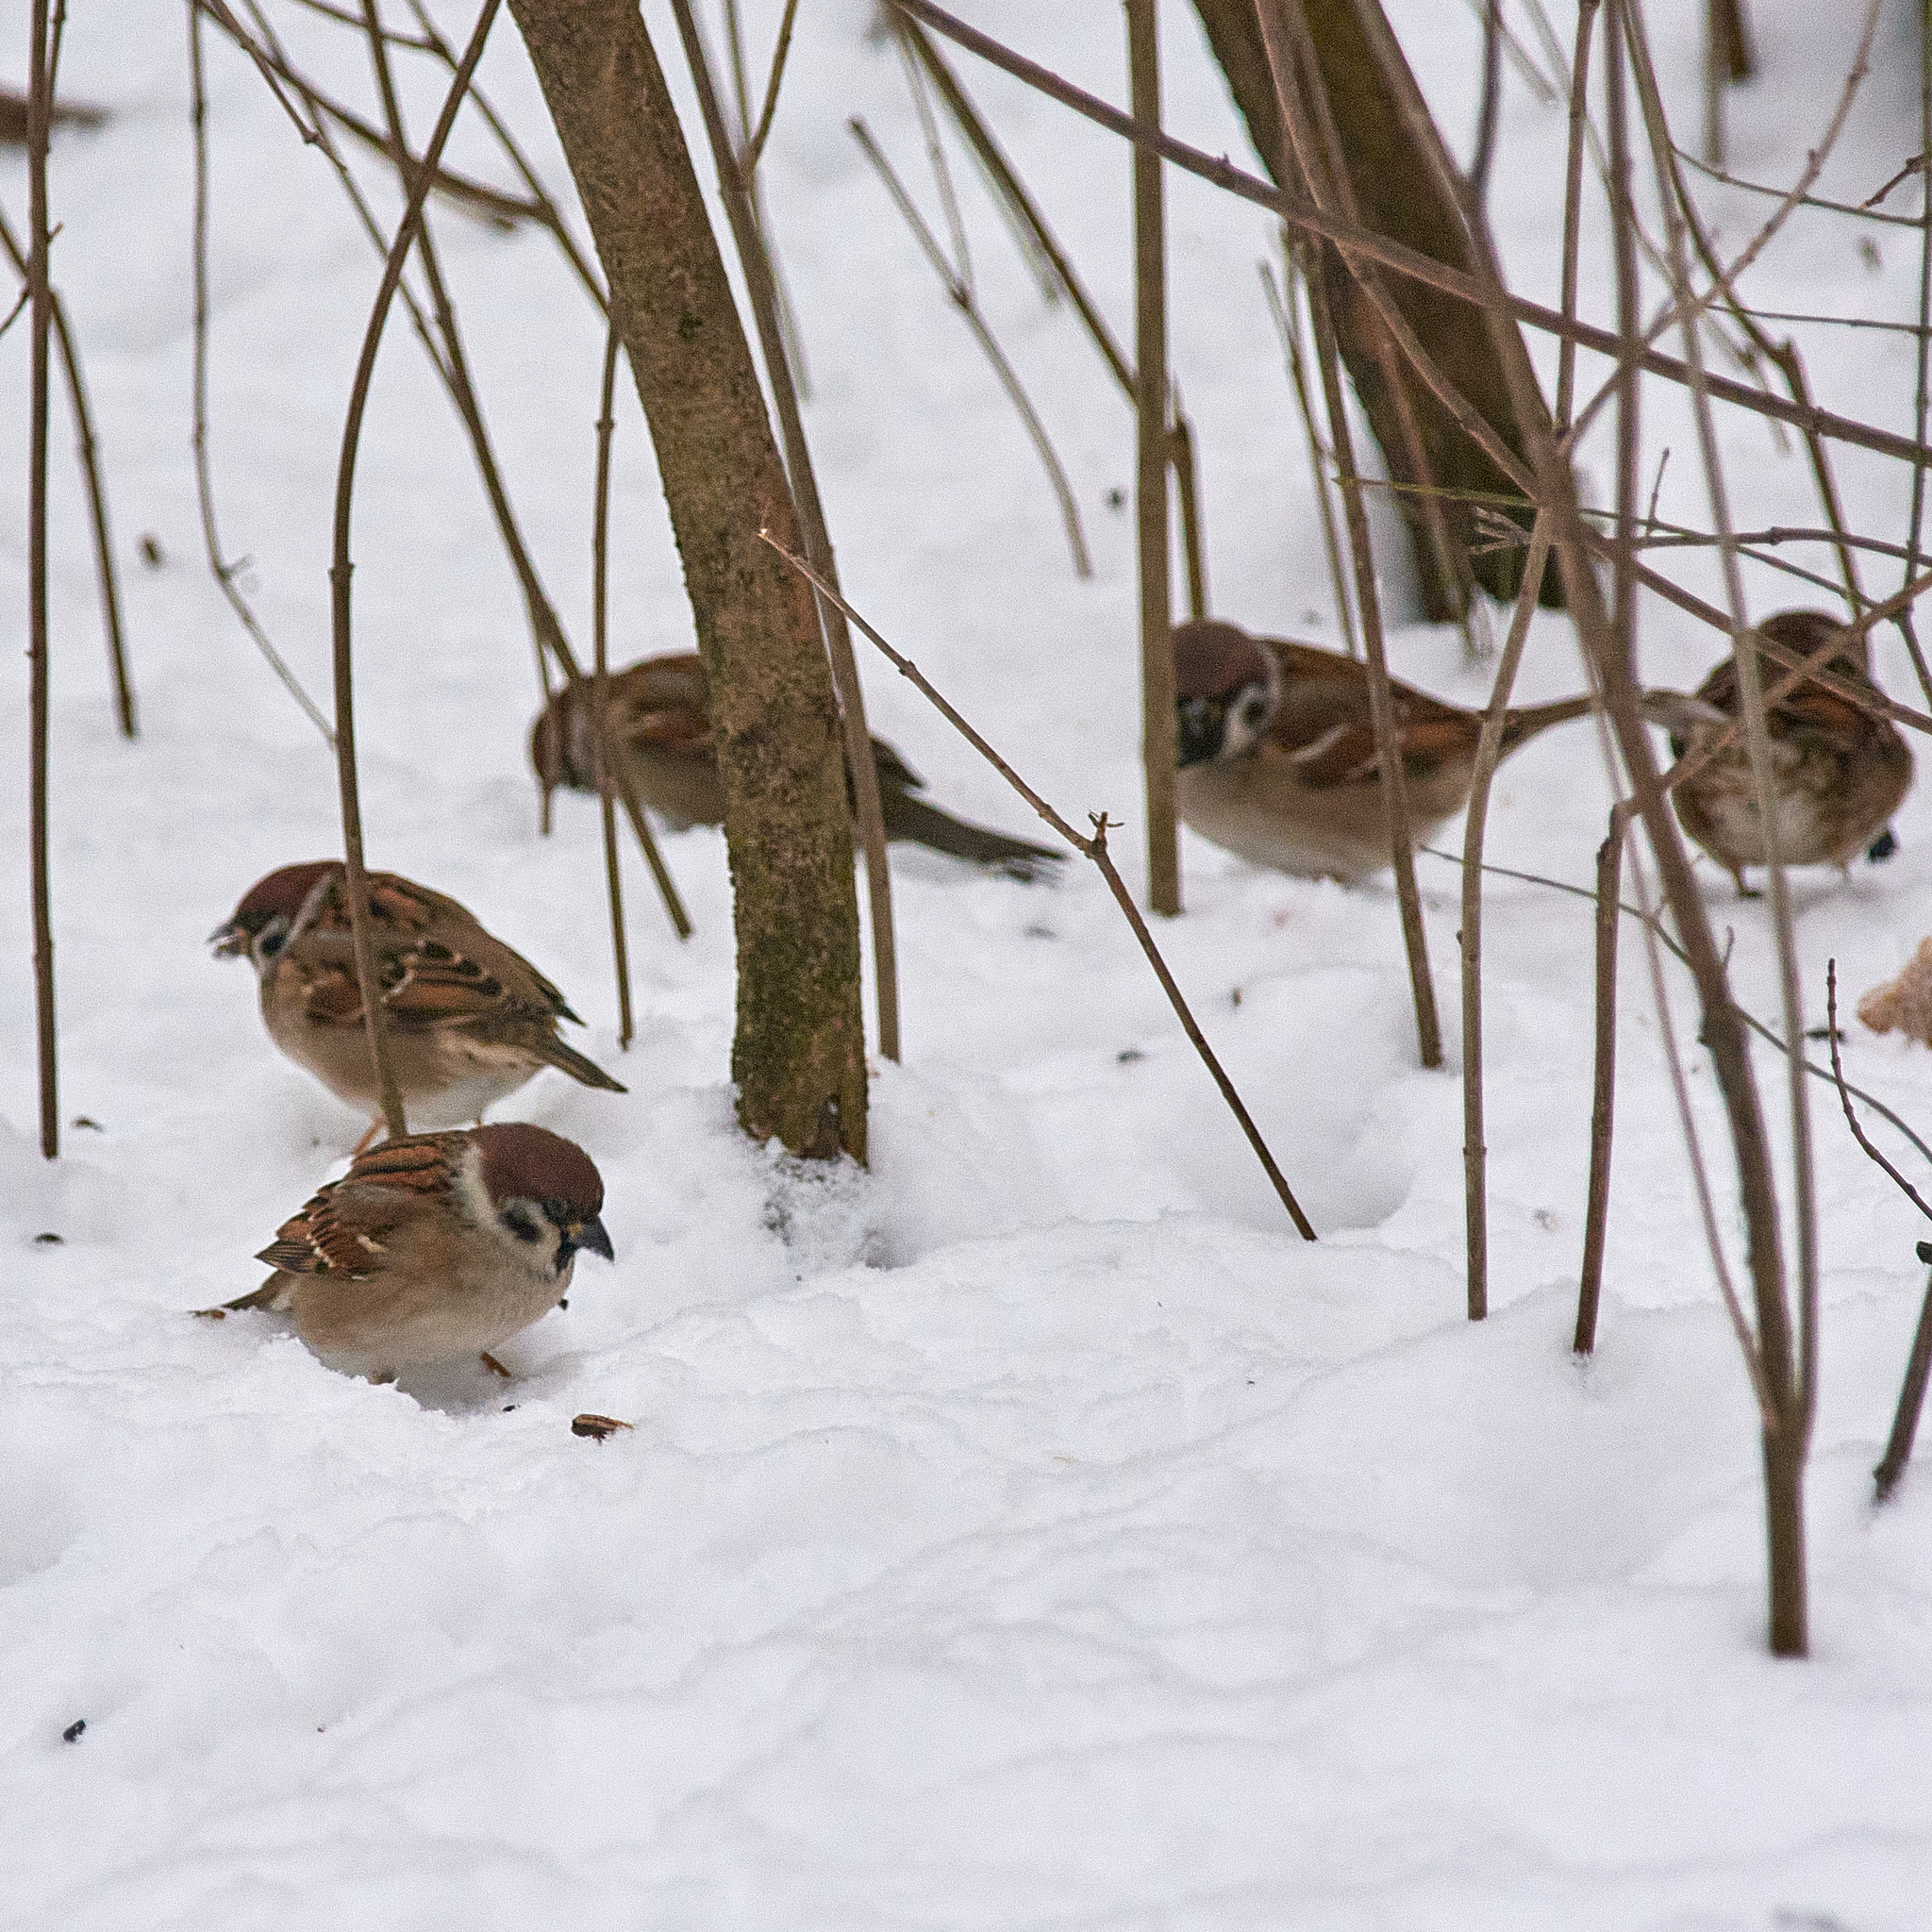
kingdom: Animalia
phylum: Chordata
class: Aves
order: Passeriformes
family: Passeridae
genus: Passer
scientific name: Passer montanus
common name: Eurasian tree sparrow
